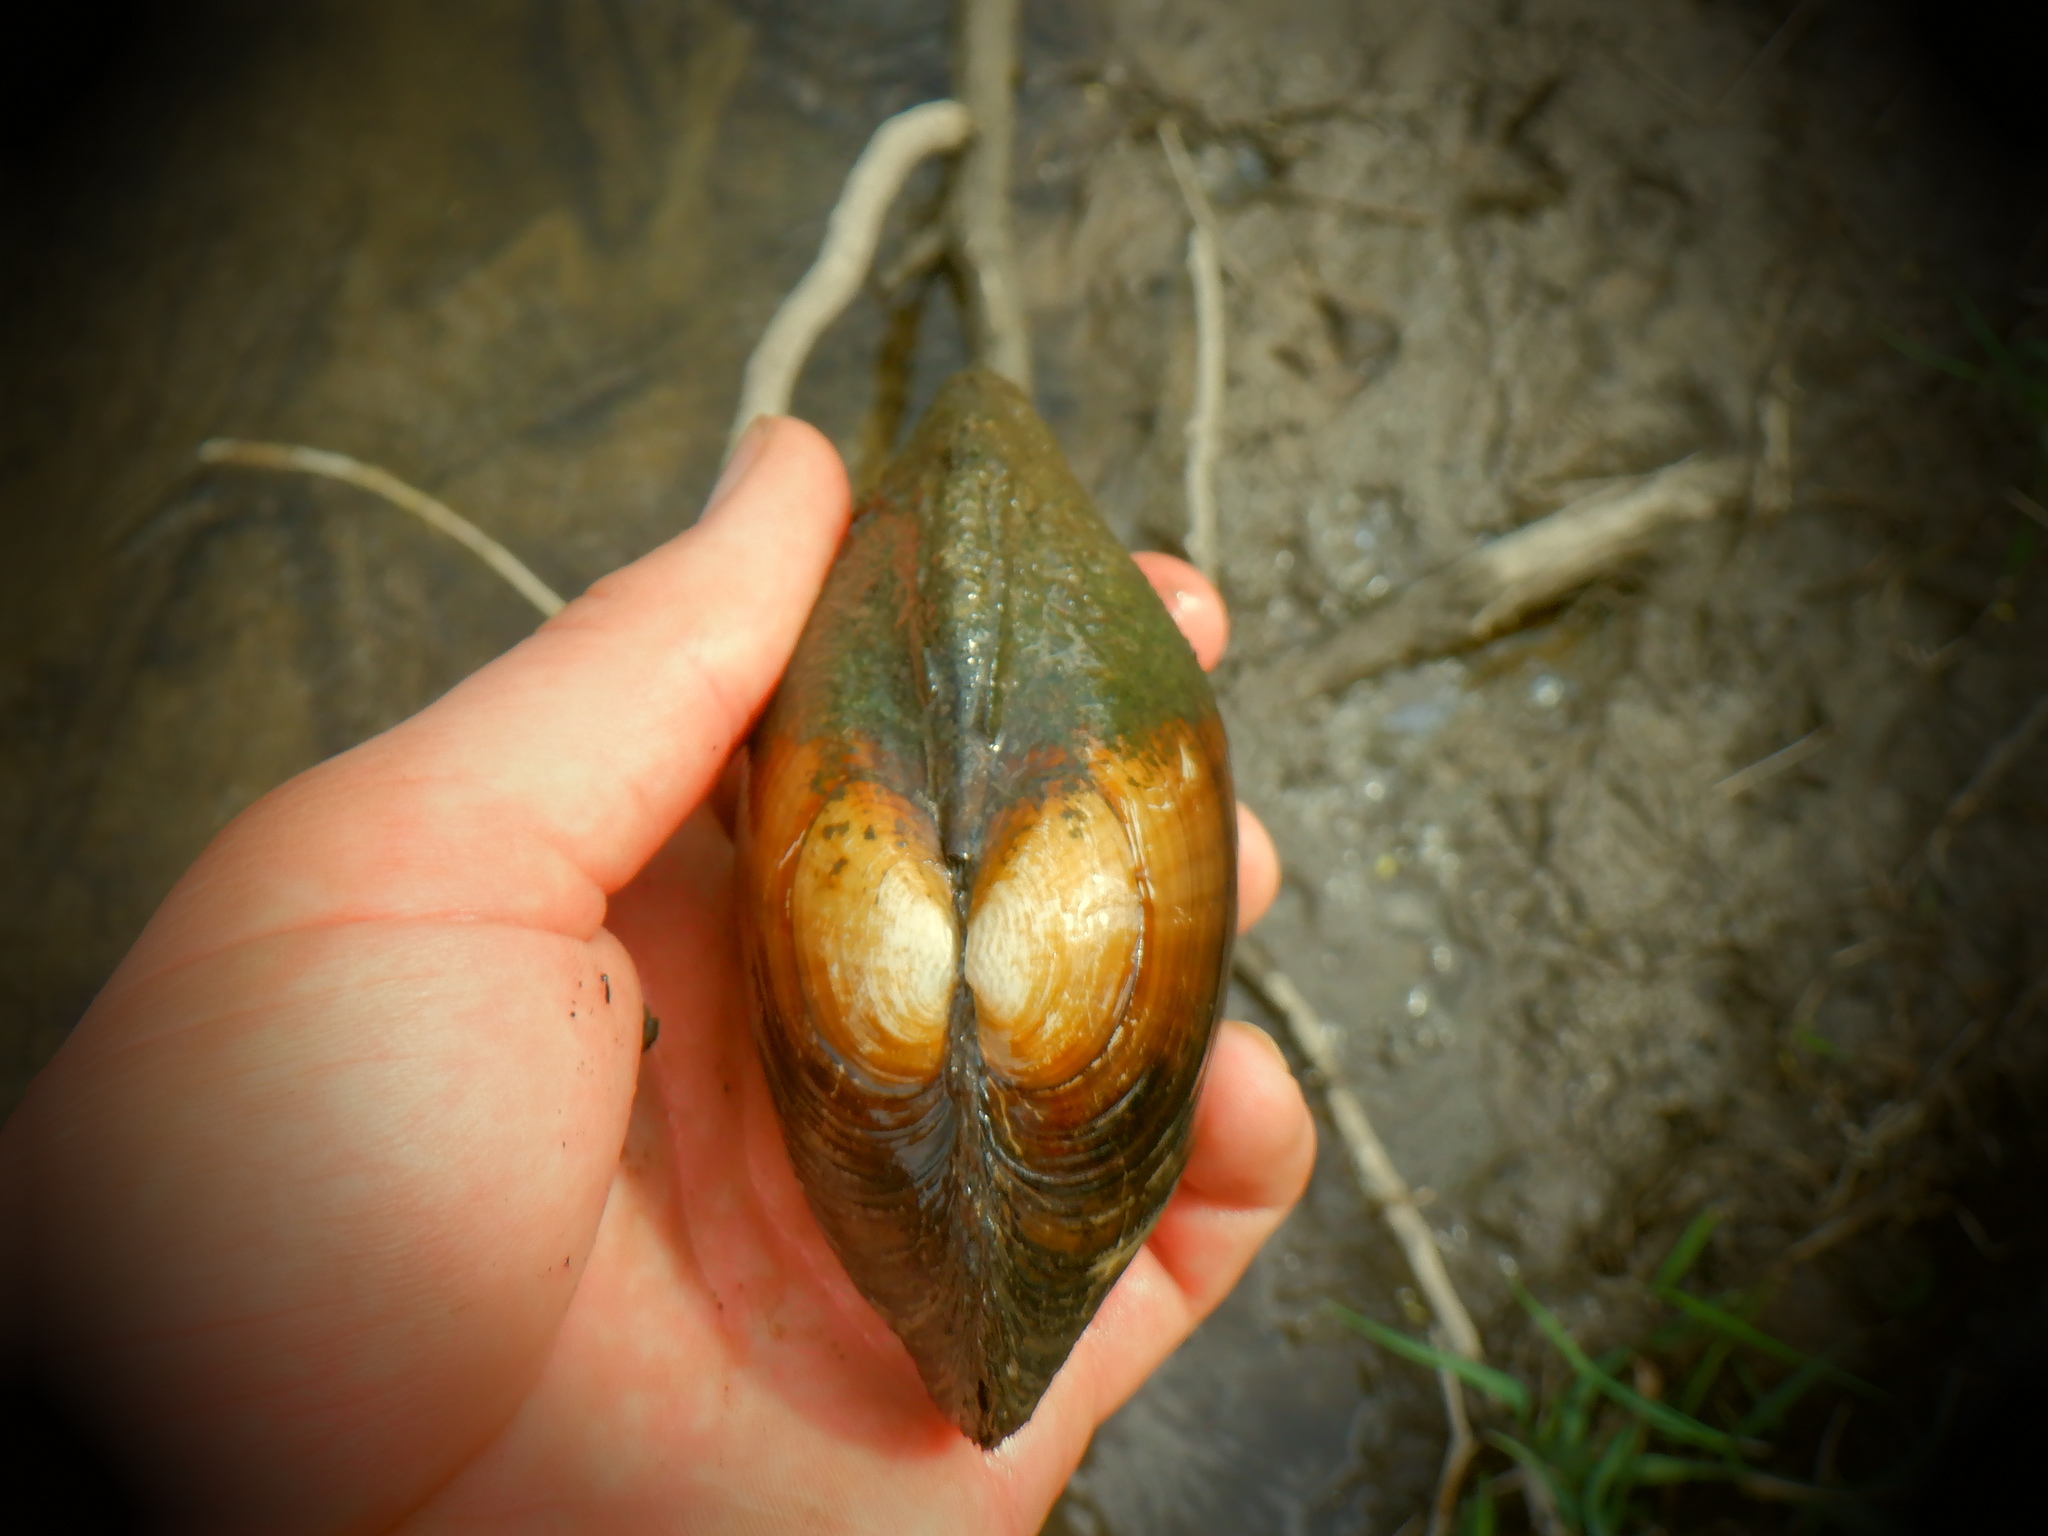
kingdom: Animalia
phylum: Mollusca
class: Bivalvia
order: Unionida
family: Unionidae
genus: Lampsilis
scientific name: Lampsilis siliquoidea
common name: Fatmucket
